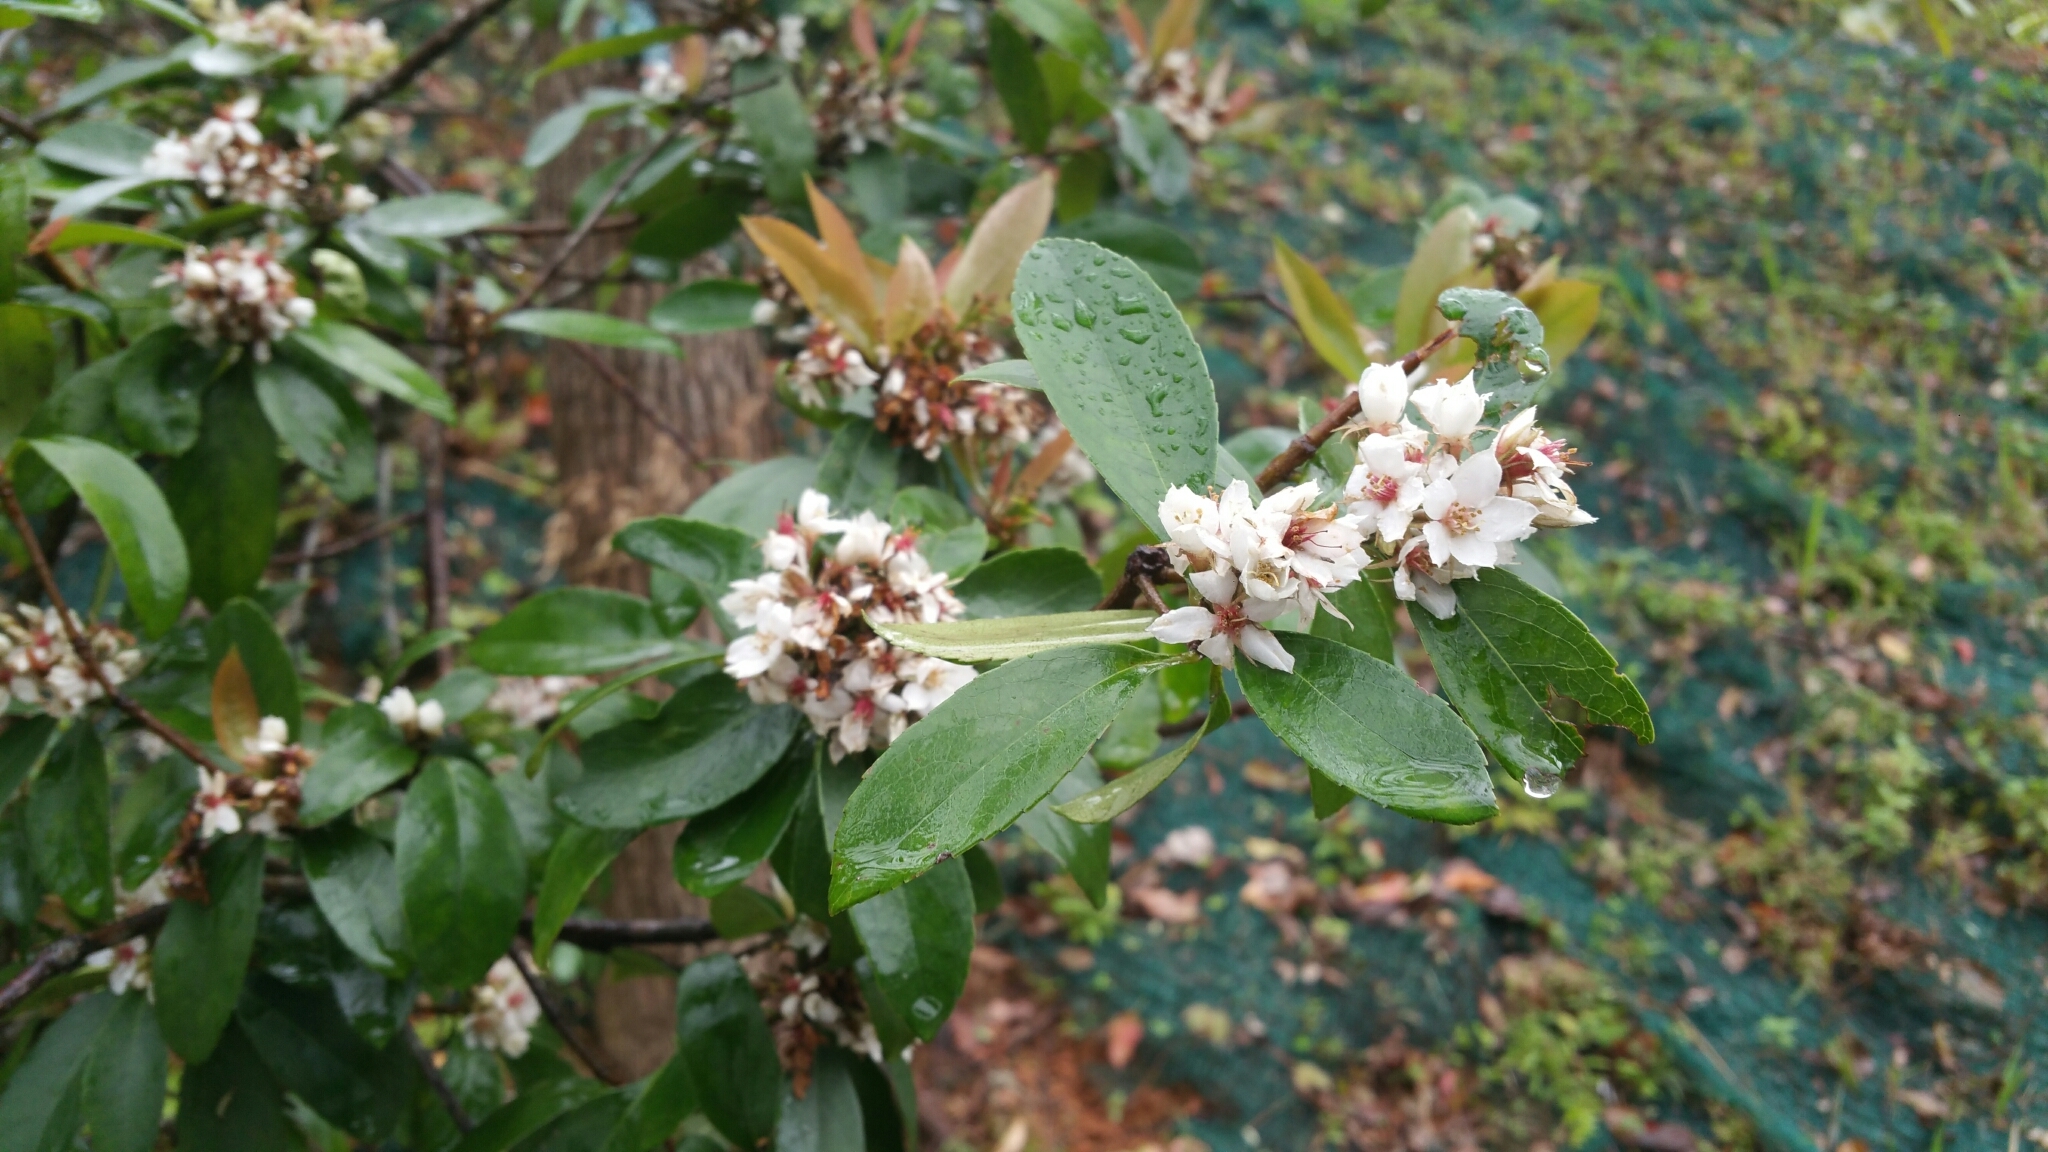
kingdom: Plantae
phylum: Tracheophyta
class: Magnoliopsida
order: Rosales
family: Rosaceae
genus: Rhaphiolepis
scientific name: Rhaphiolepis indica
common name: India-hawthorn
